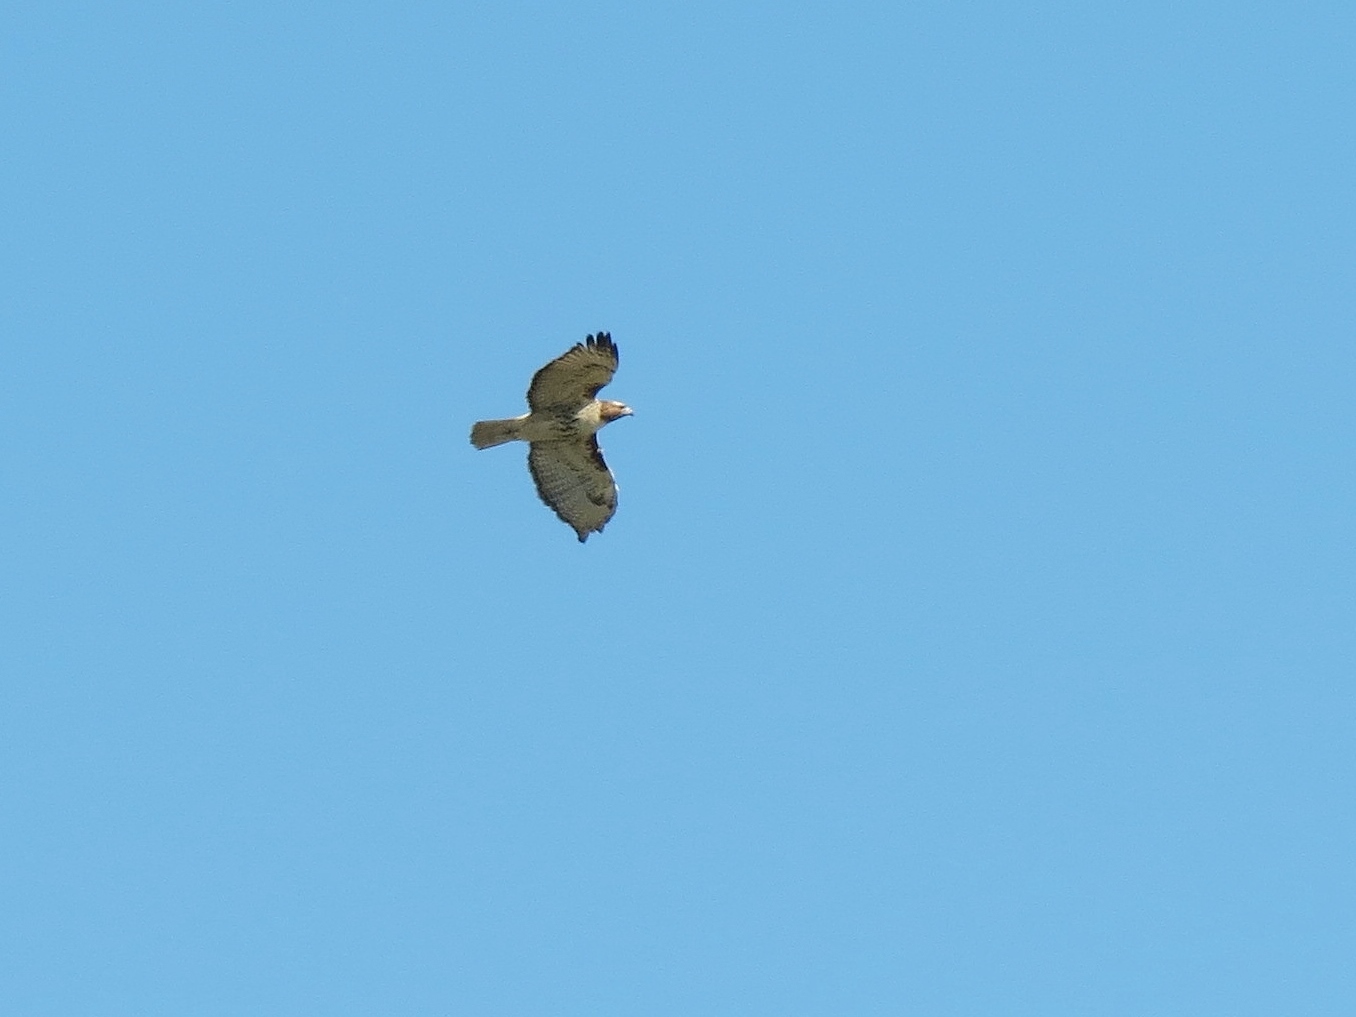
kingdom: Animalia
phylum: Chordata
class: Aves
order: Accipitriformes
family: Accipitridae
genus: Buteo
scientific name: Buteo jamaicensis
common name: Red-tailed hawk
